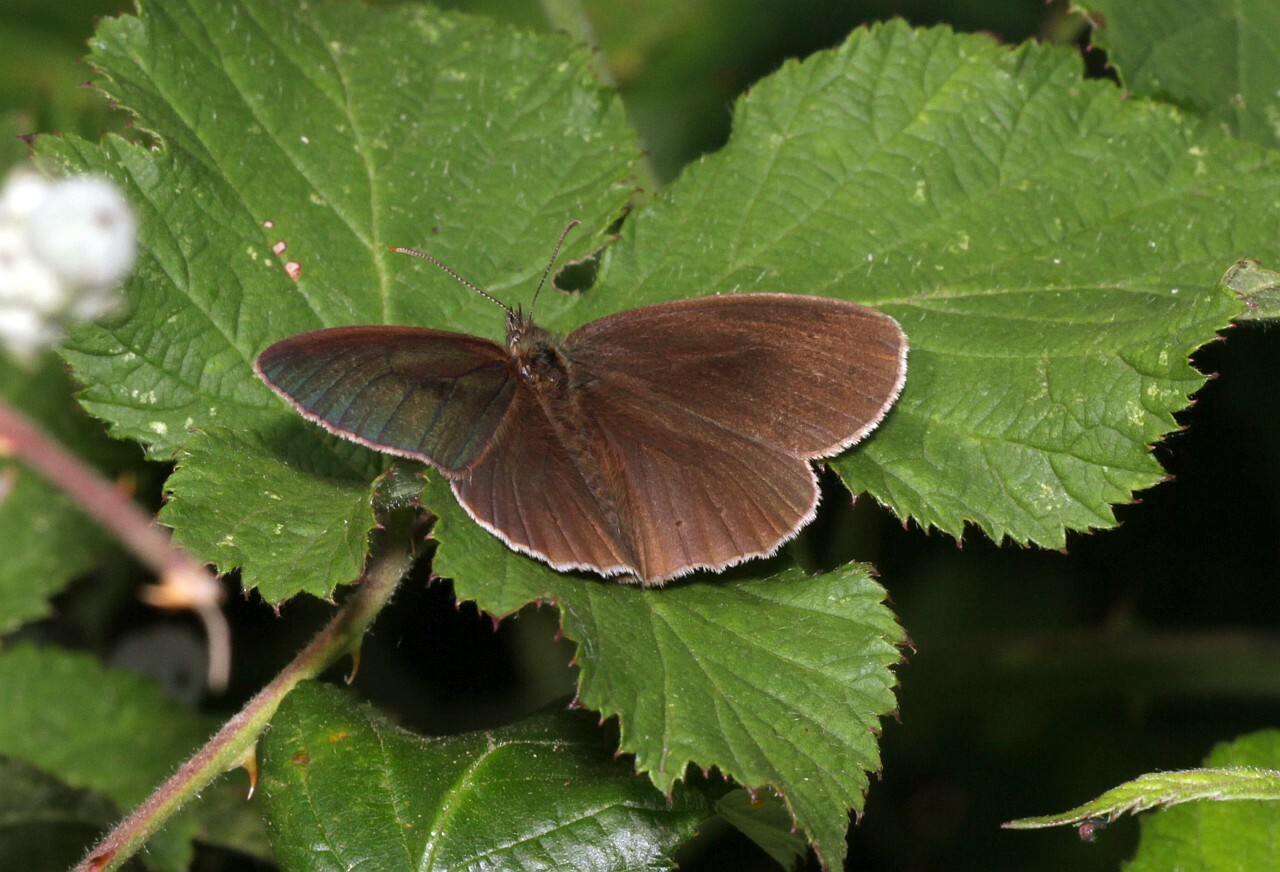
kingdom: Animalia
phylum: Arthropoda
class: Insecta
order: Lepidoptera
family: Nymphalidae
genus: Aphantopus
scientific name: Aphantopus hyperantus
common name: Ringlet
